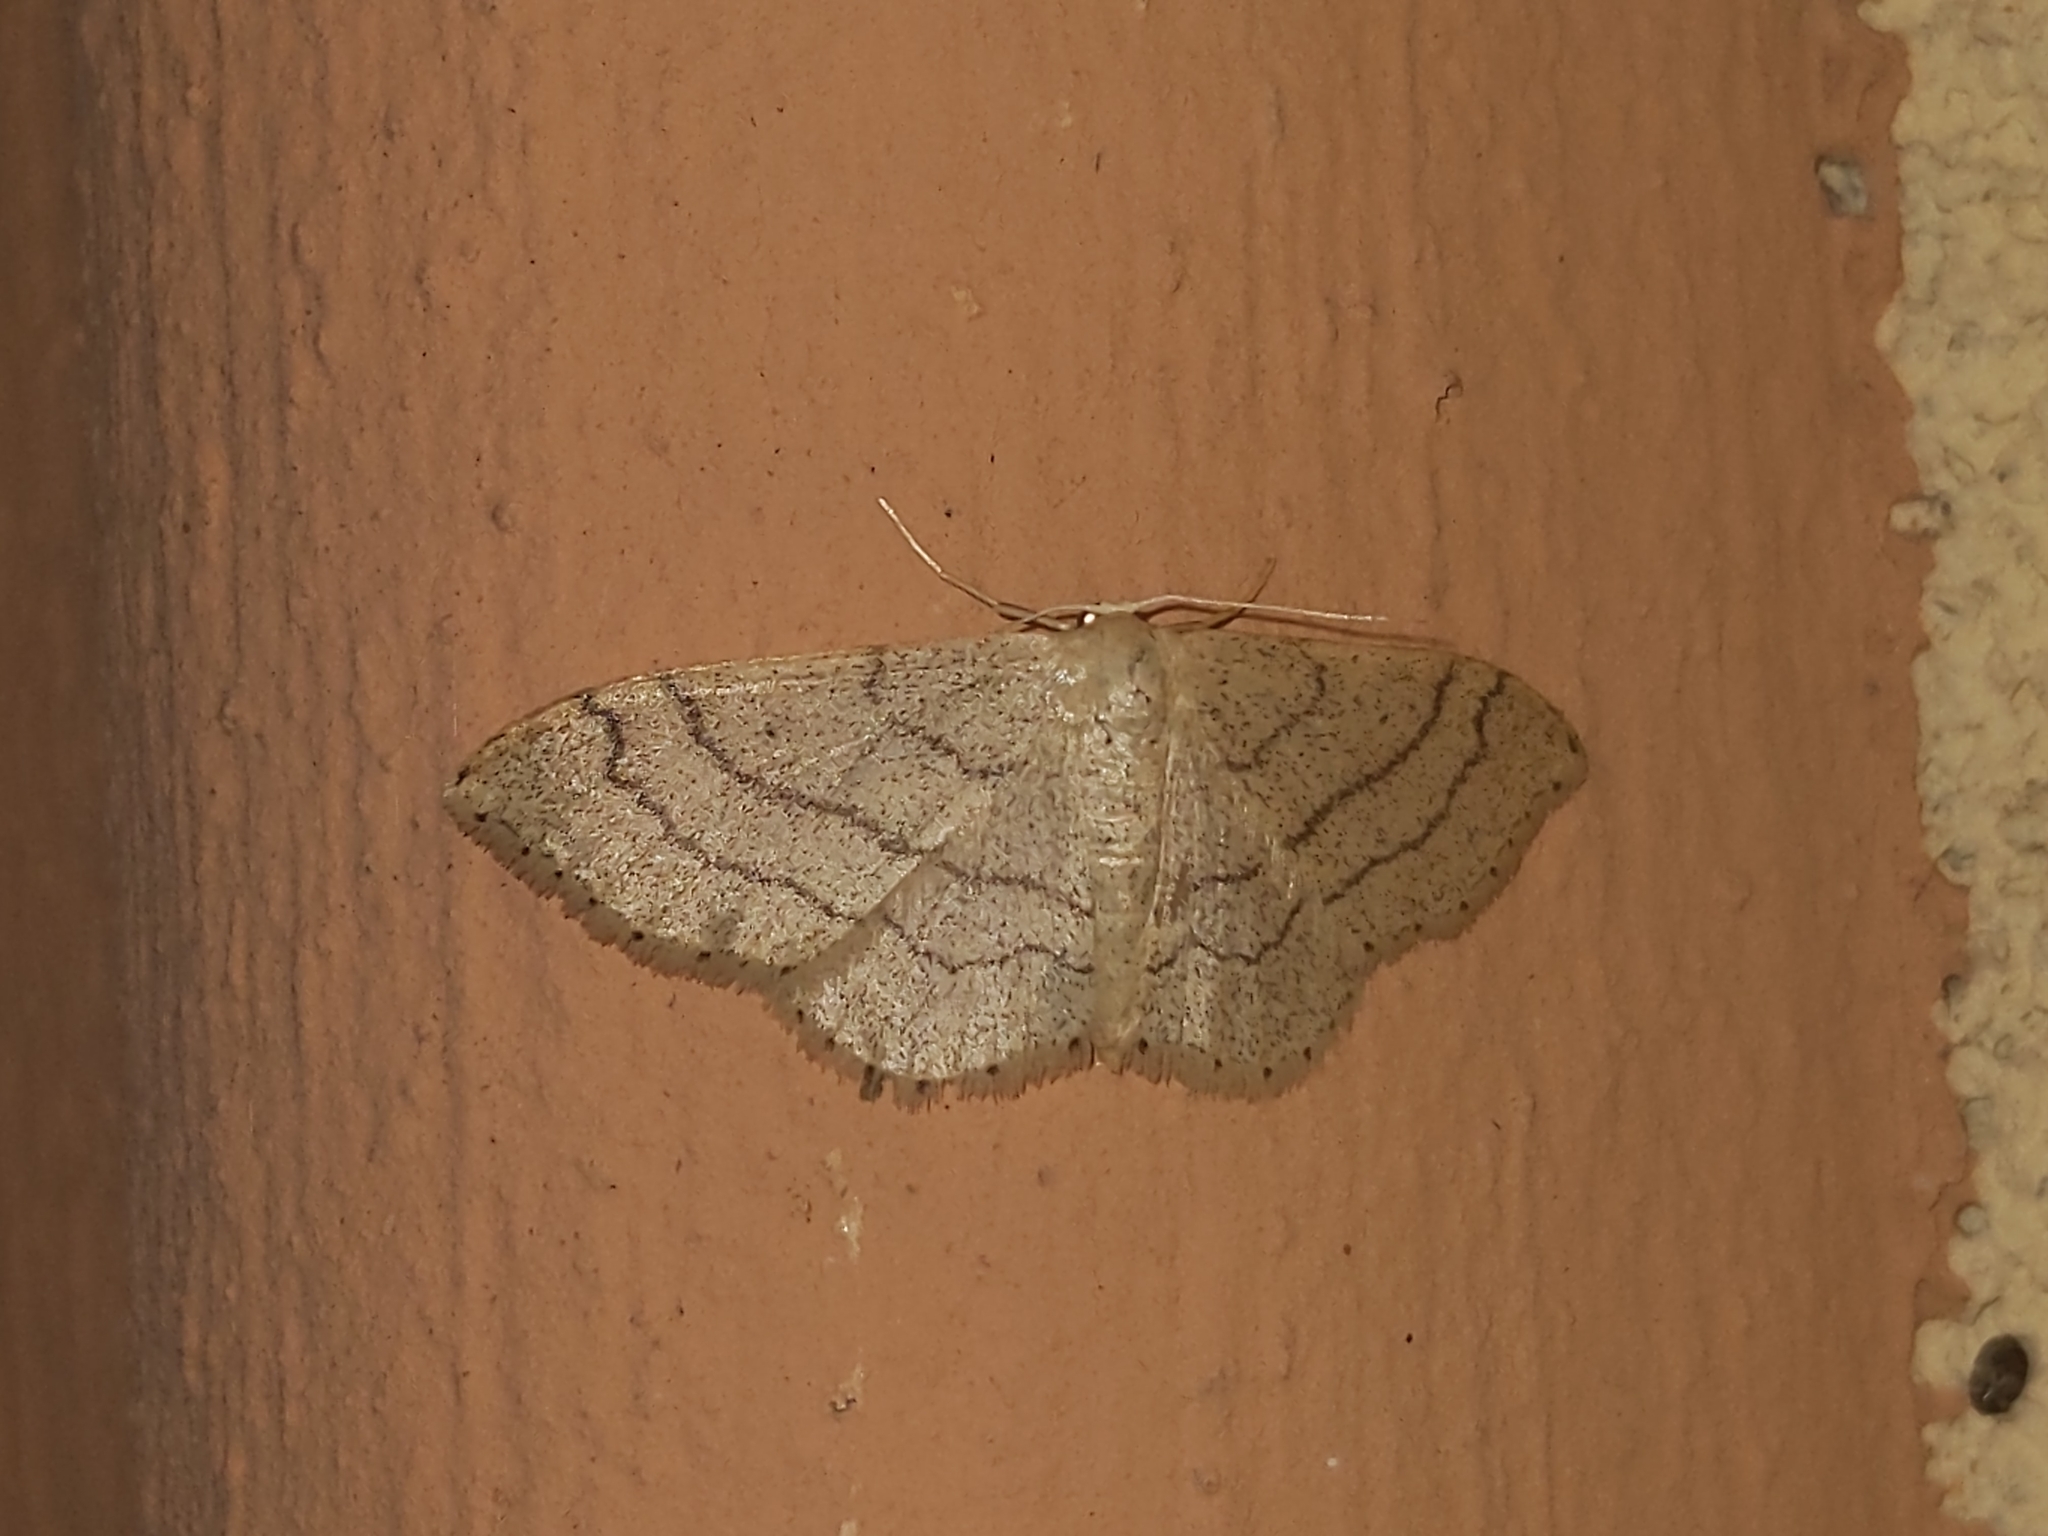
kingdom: Animalia
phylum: Arthropoda
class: Insecta
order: Lepidoptera
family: Geometridae
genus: Idaea
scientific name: Idaea aversata
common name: Riband wave
